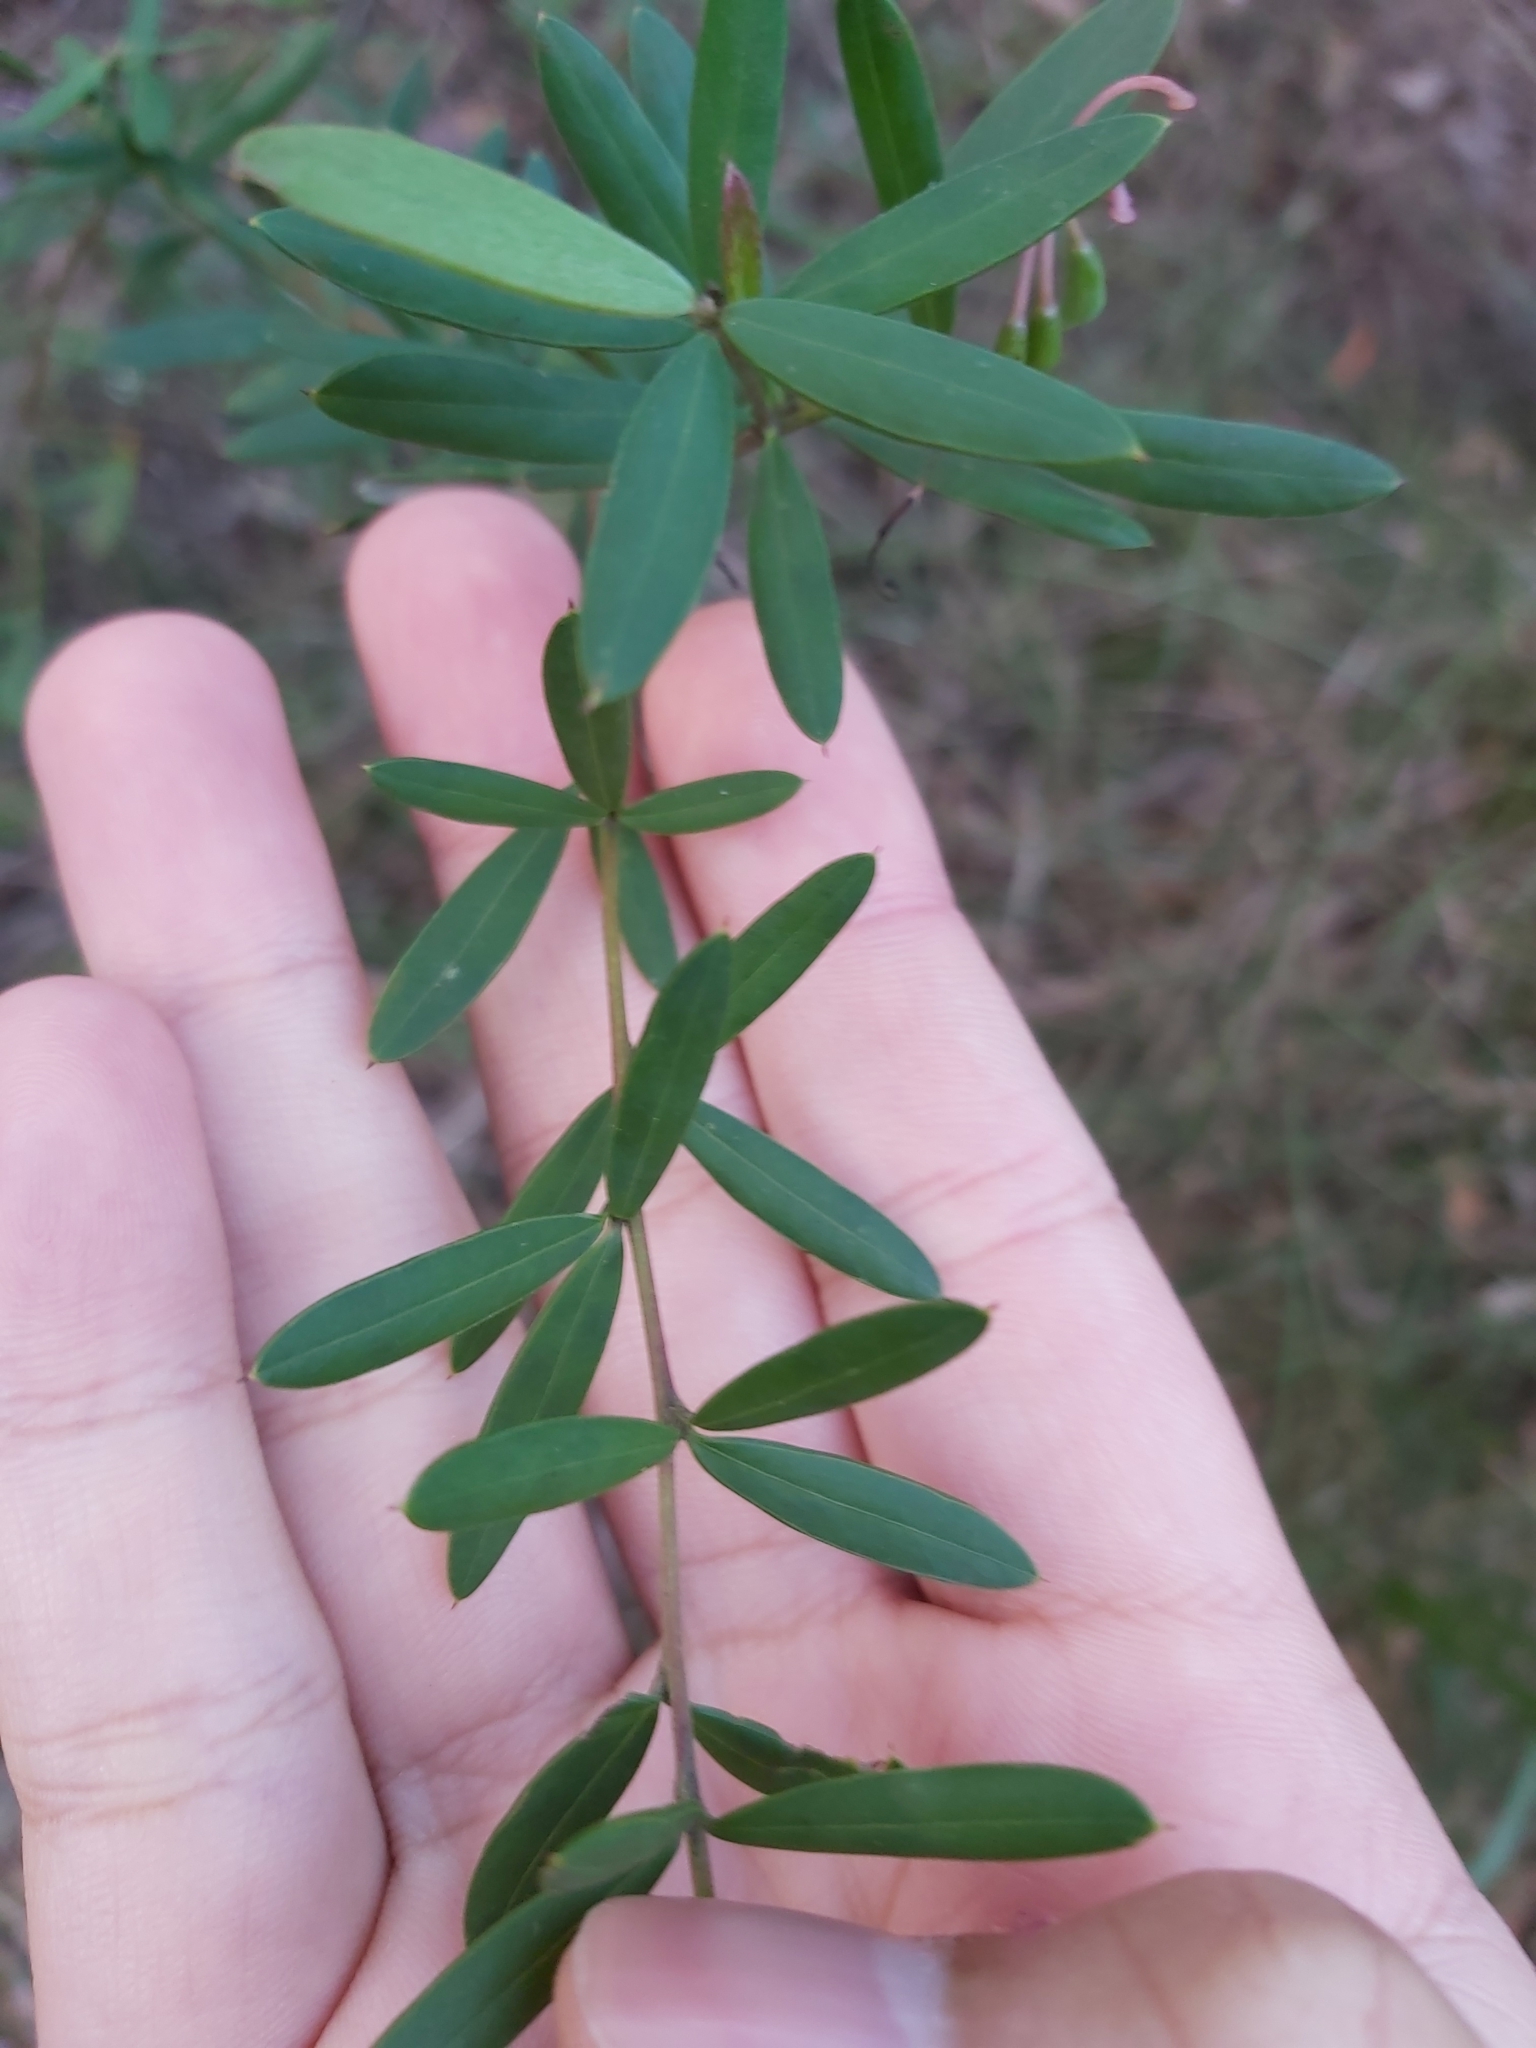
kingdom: Plantae
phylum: Tracheophyta
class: Magnoliopsida
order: Proteales
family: Proteaceae
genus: Grevillea
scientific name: Grevillea sericea
